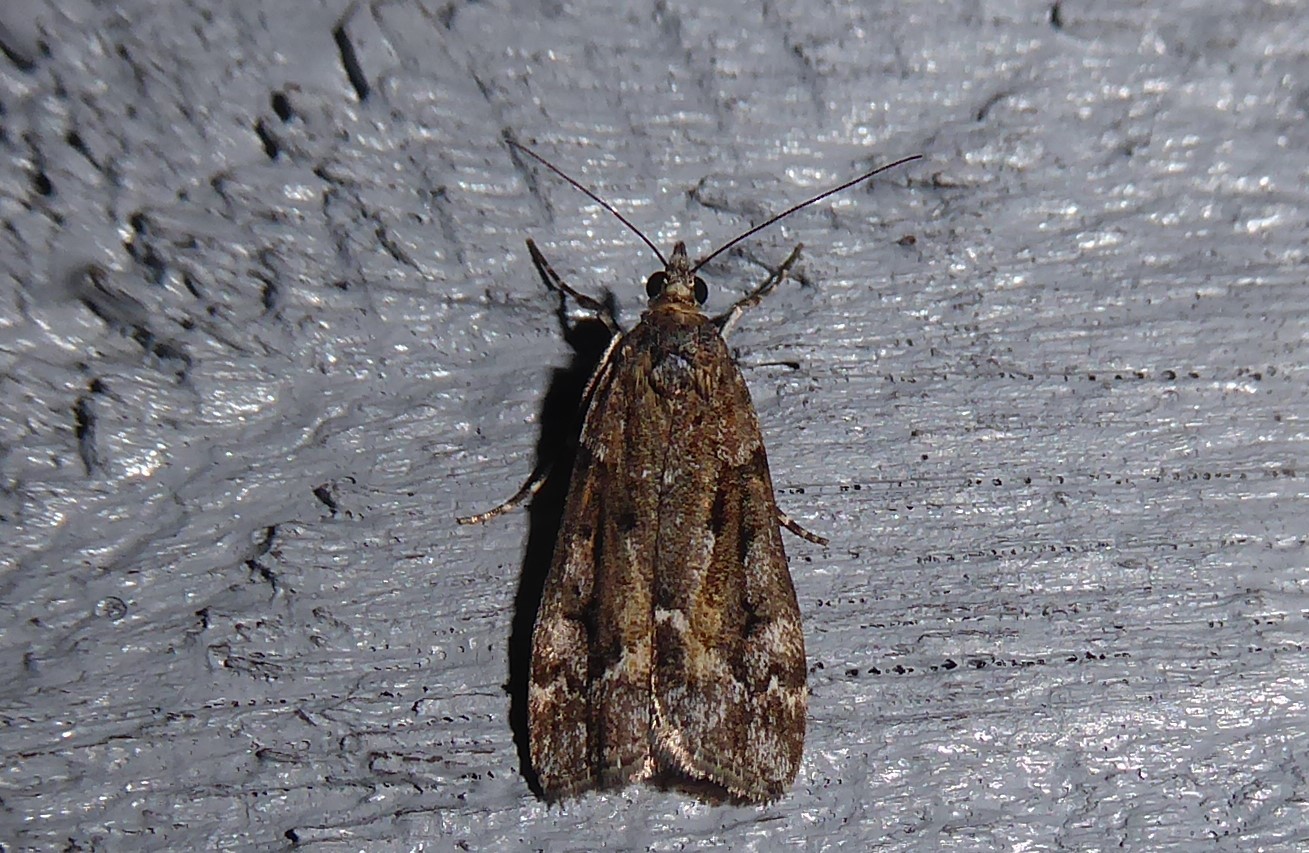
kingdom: Animalia
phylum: Arthropoda
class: Insecta
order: Lepidoptera
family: Crambidae
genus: Eudonia
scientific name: Eudonia submarginalis
